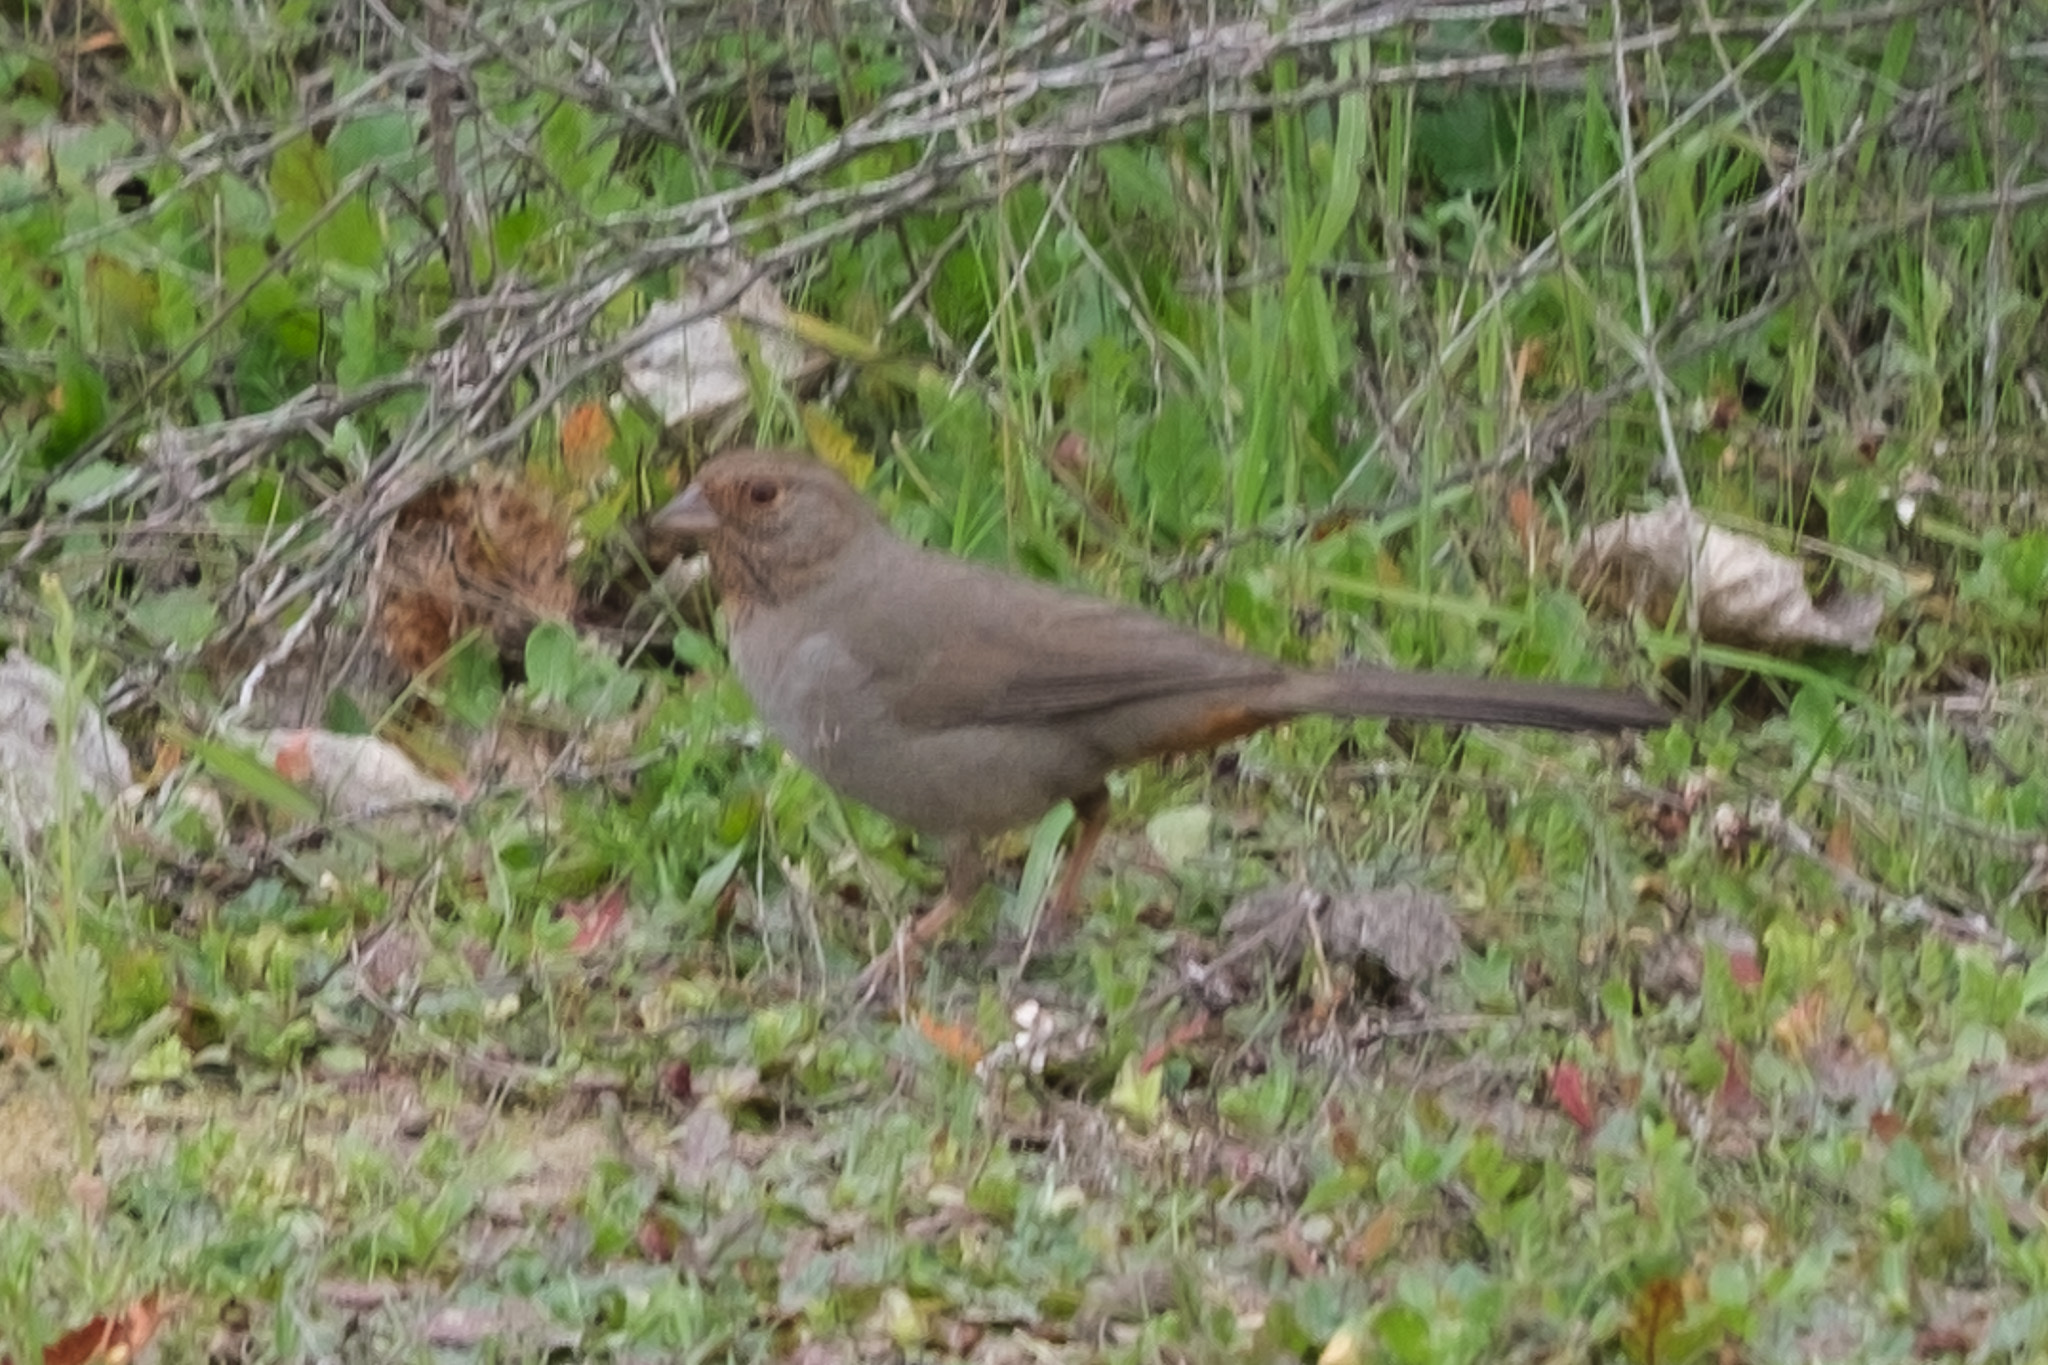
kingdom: Animalia
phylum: Chordata
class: Aves
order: Passeriformes
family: Passerellidae
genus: Melozone
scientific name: Melozone crissalis
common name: California towhee
